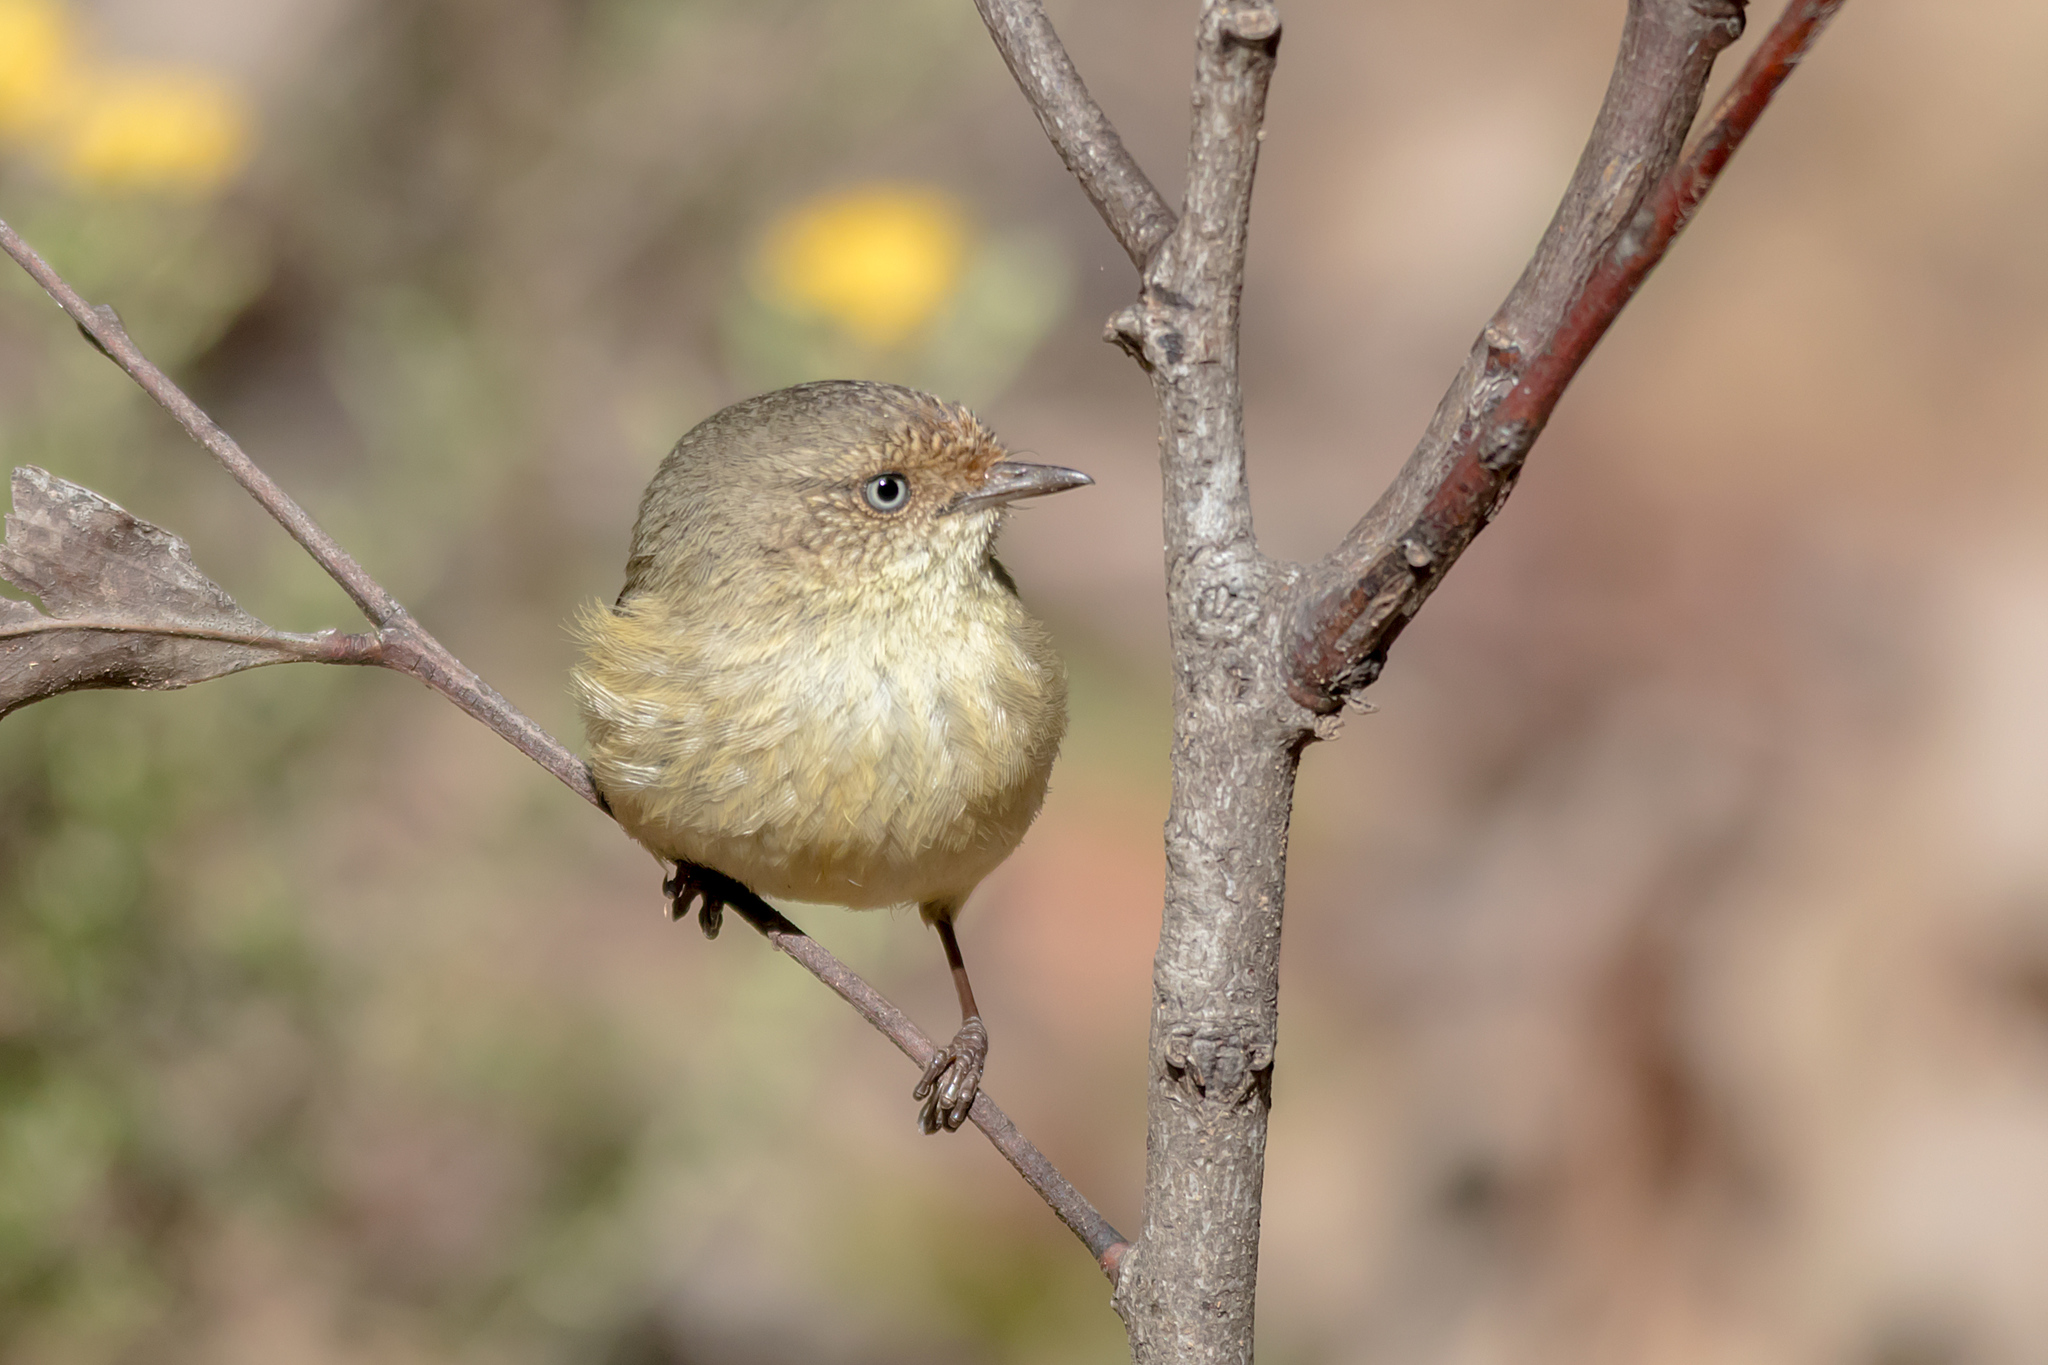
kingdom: Animalia
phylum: Chordata
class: Aves
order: Passeriformes
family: Acanthizidae
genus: Acanthiza
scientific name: Acanthiza reguloides
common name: Buff-rumped thornbill
